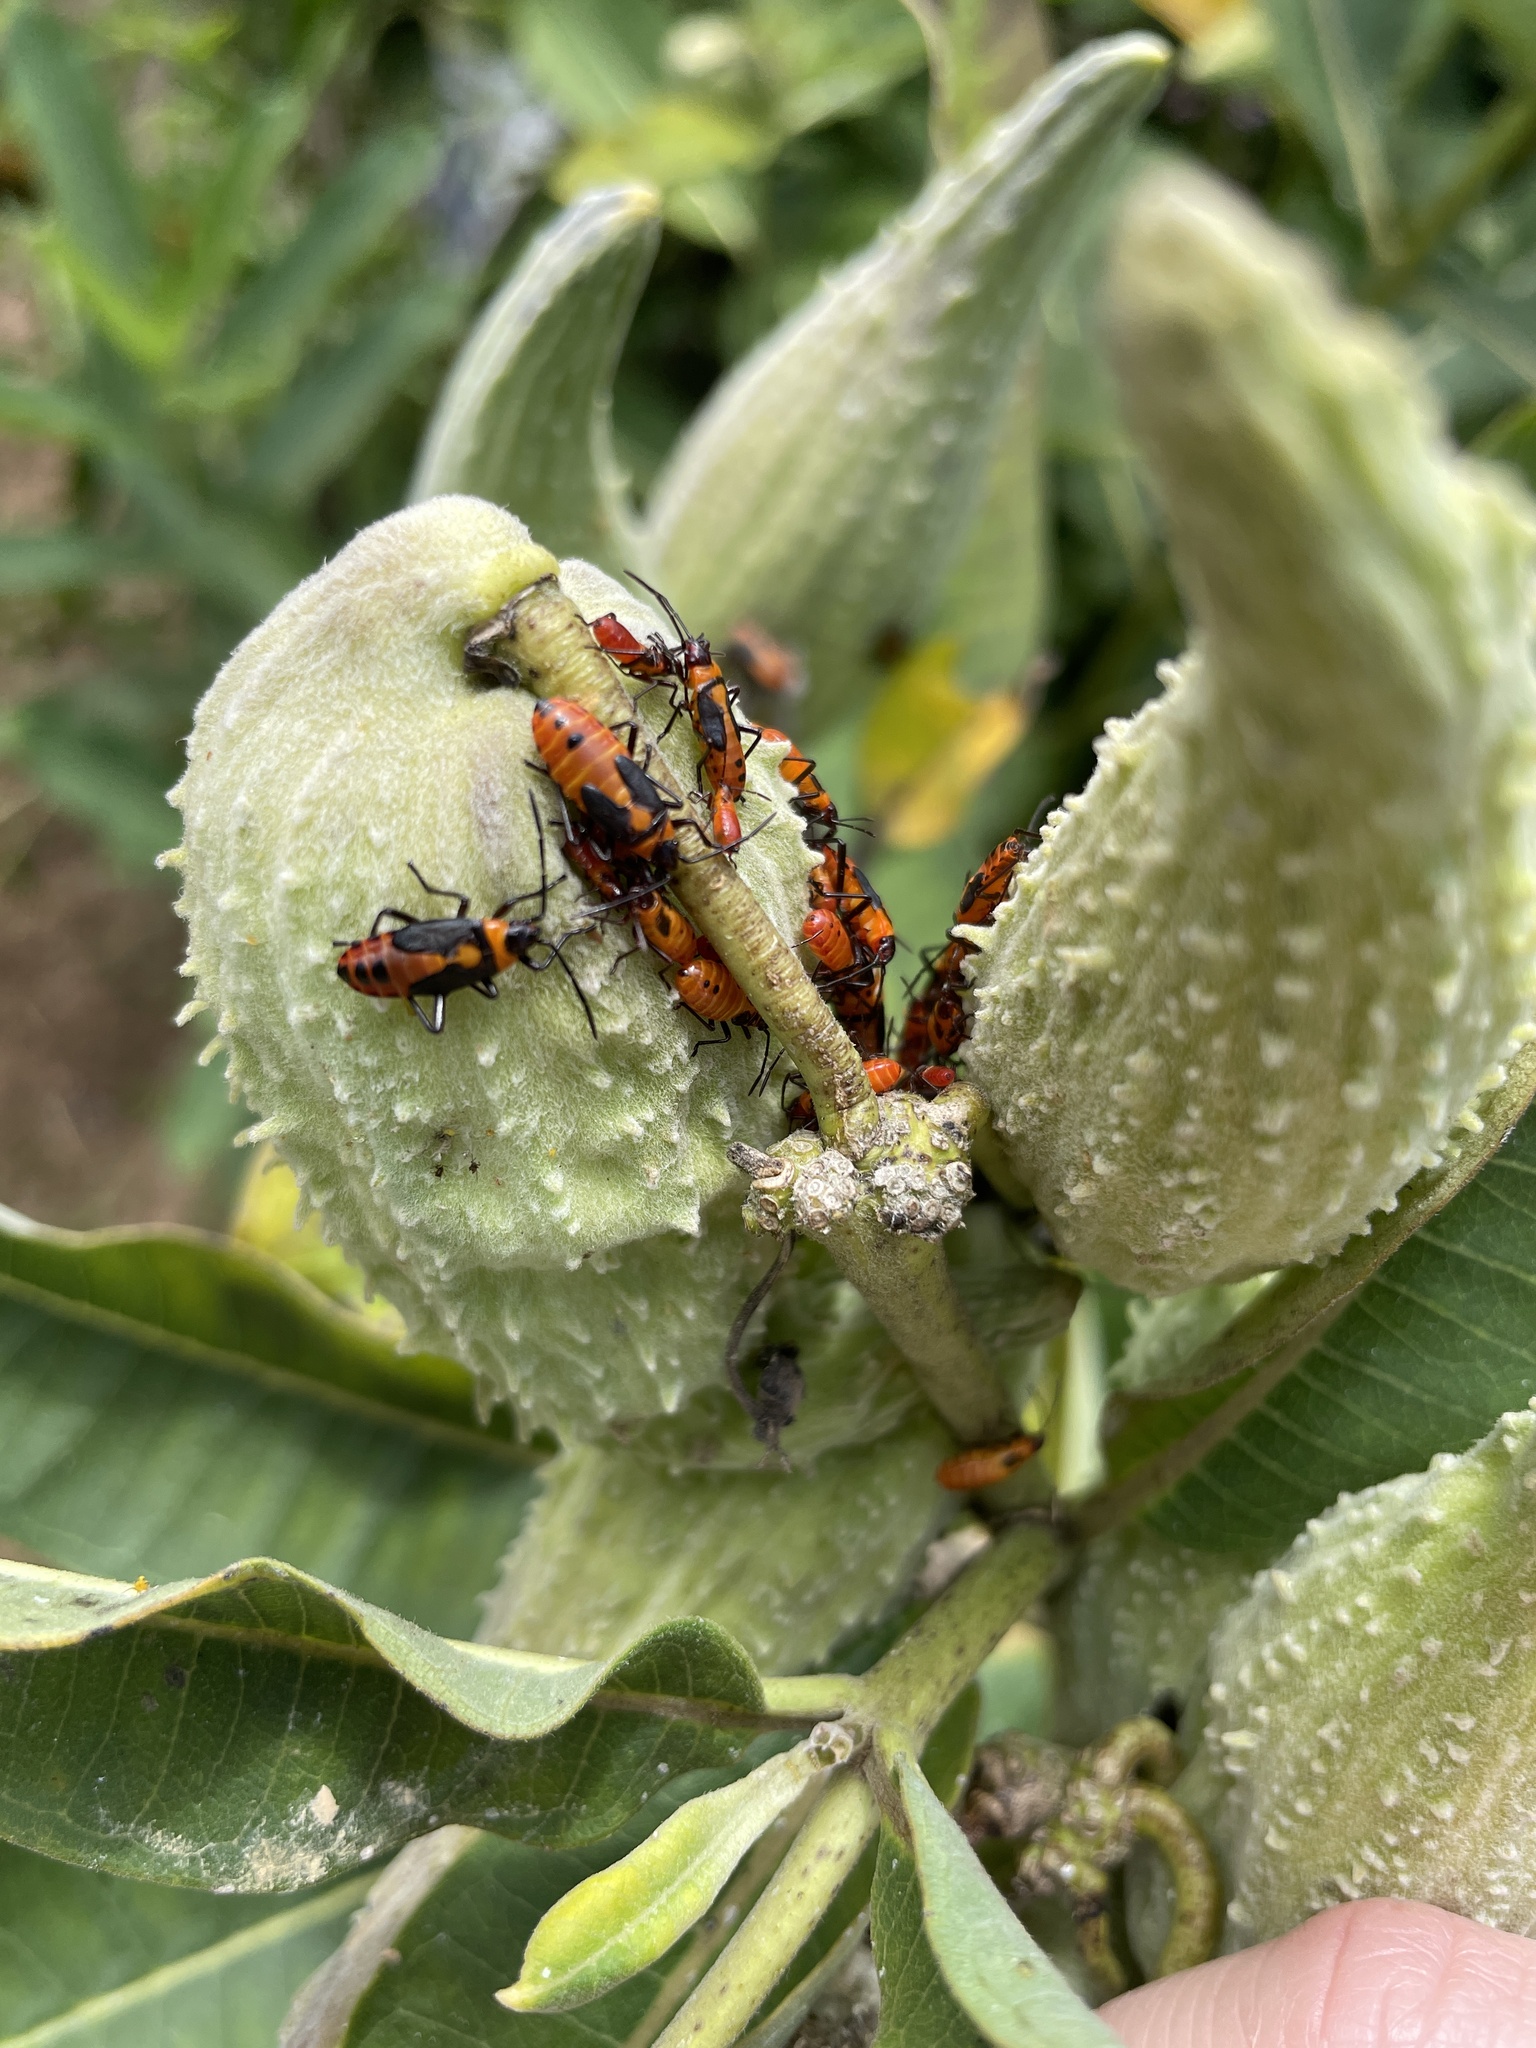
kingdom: Animalia
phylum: Arthropoda
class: Insecta
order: Hemiptera
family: Lygaeidae
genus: Oncopeltus
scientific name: Oncopeltus fasciatus
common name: Large milkweed bug
